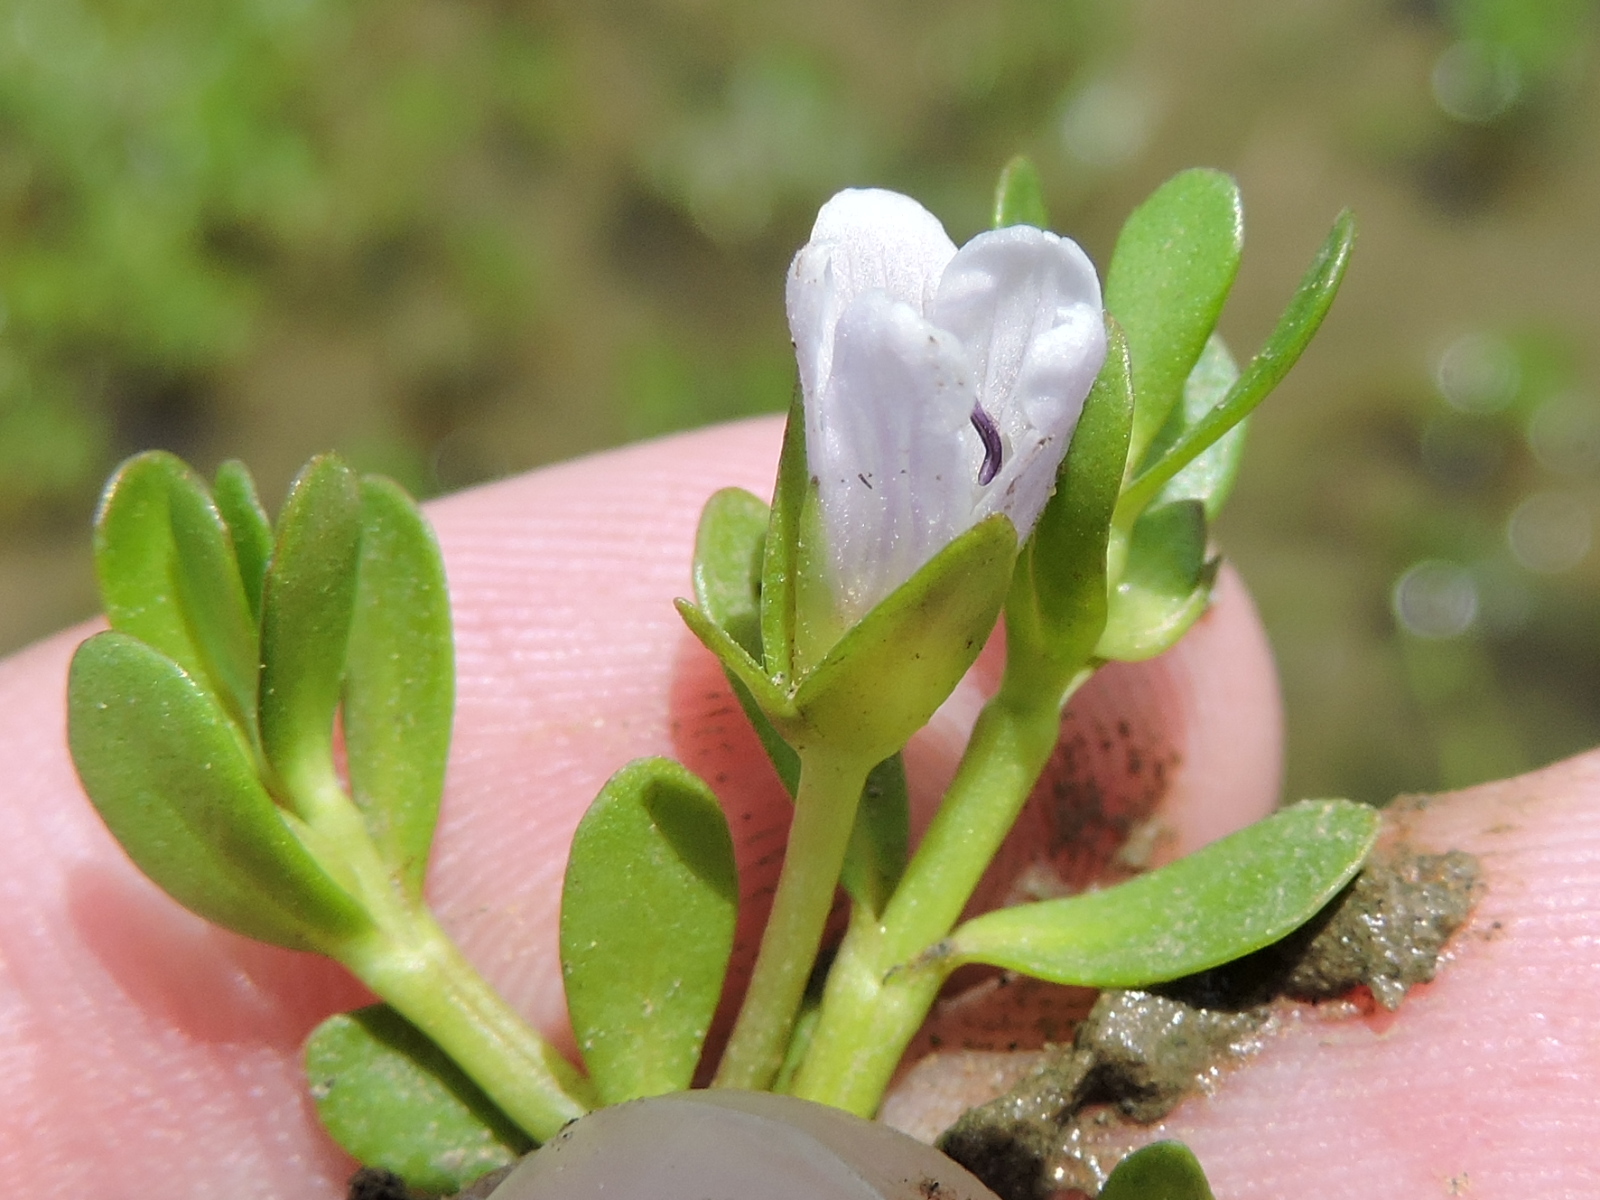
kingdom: Plantae
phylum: Tracheophyta
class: Magnoliopsida
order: Lamiales
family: Plantaginaceae
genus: Bacopa
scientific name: Bacopa monnieri
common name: Indian-pennywort
